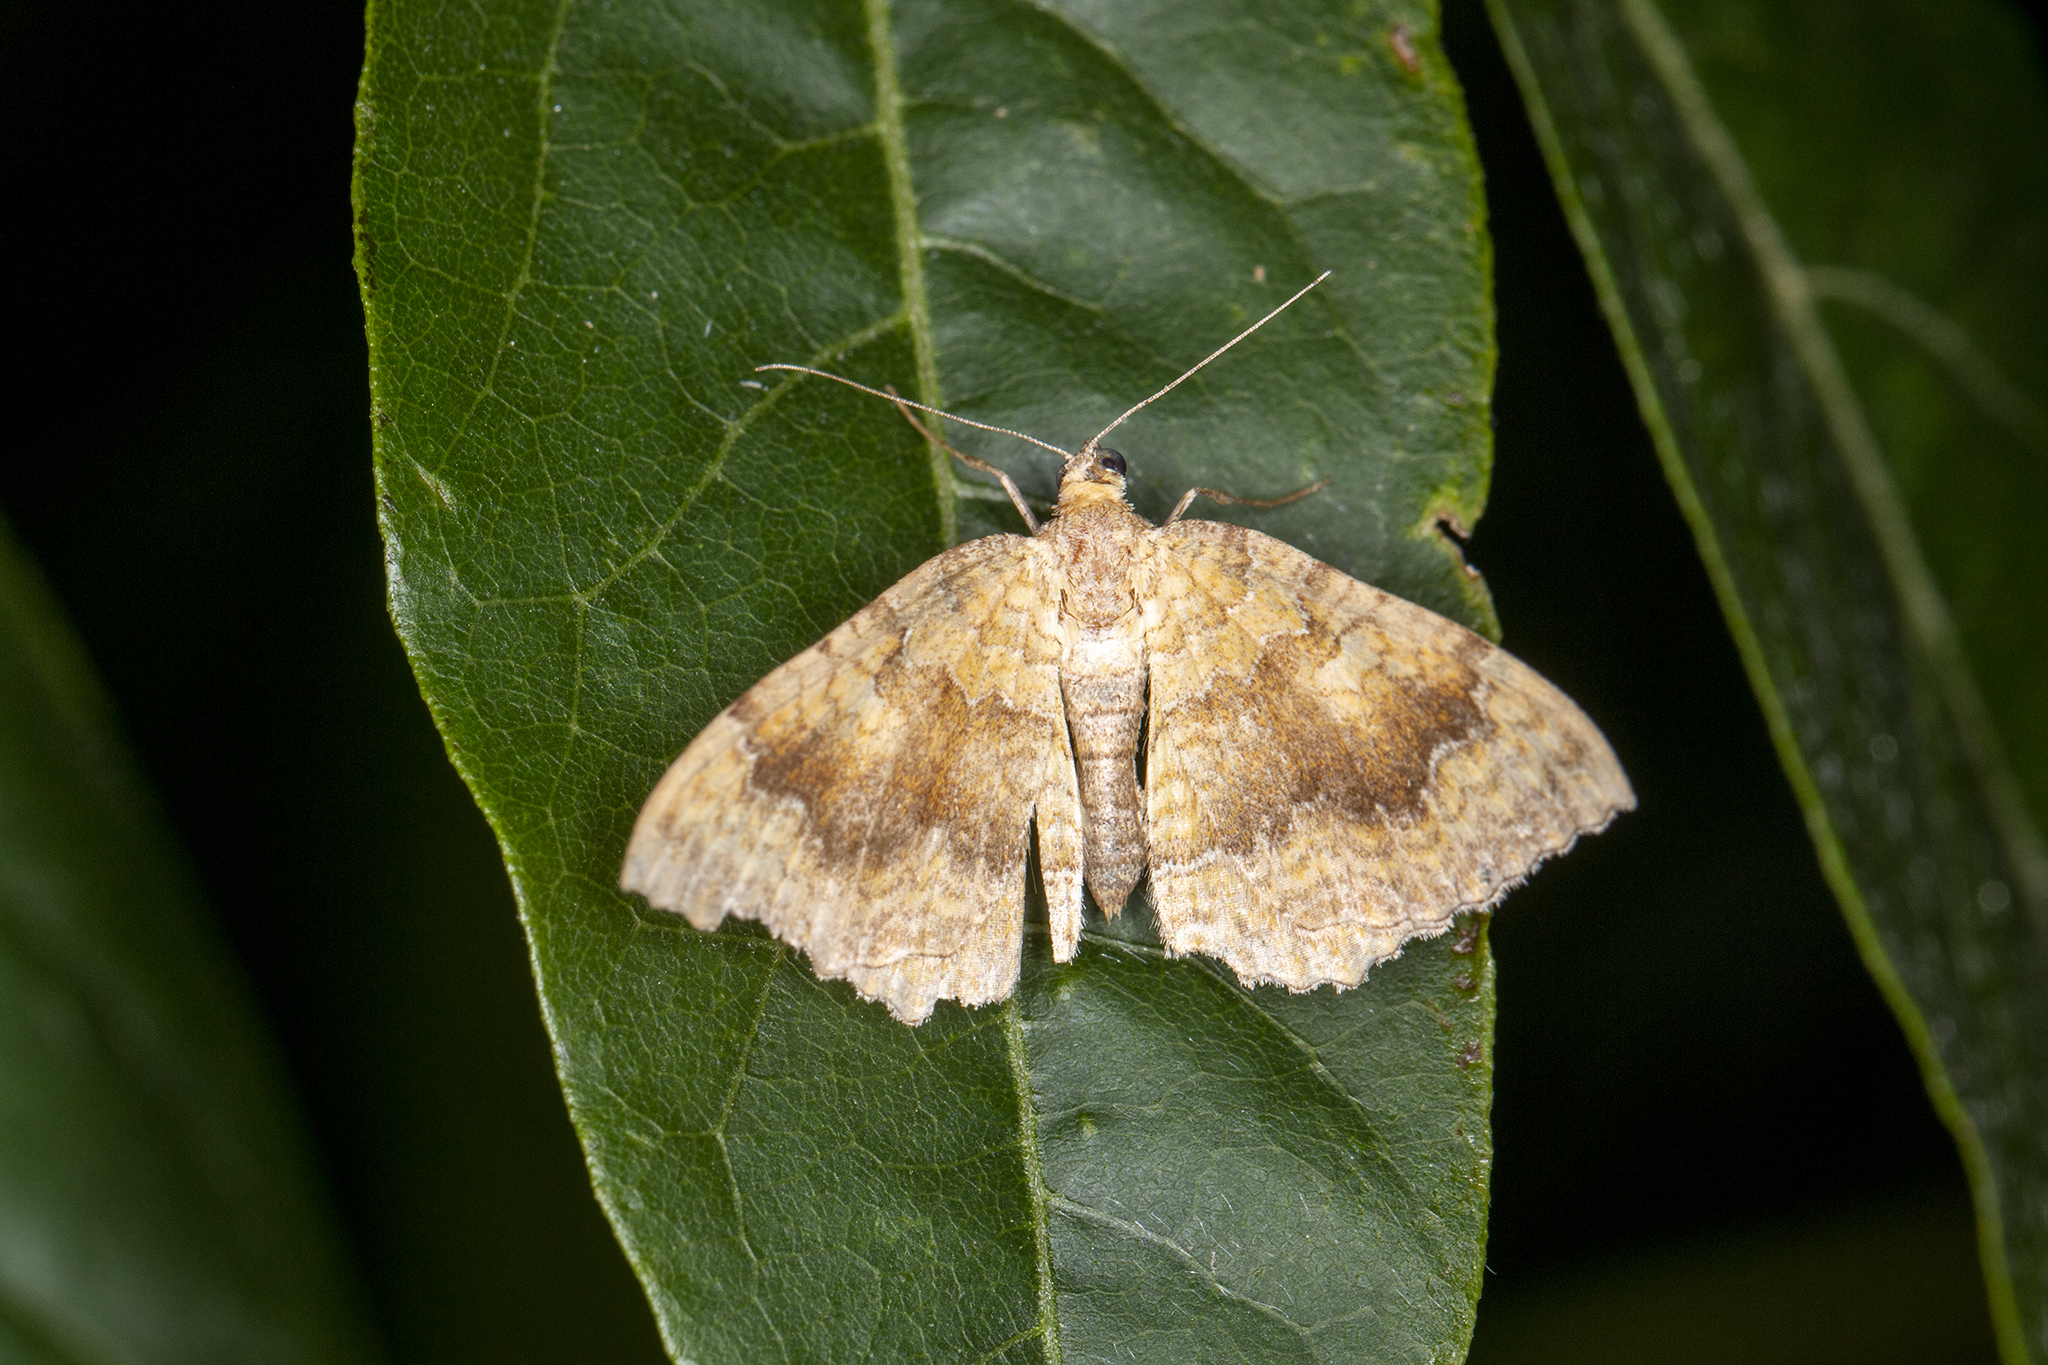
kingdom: Animalia
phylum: Arthropoda
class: Insecta
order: Lepidoptera
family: Geometridae
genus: Camptogramma
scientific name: Camptogramma bilineata
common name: Yellow shell
